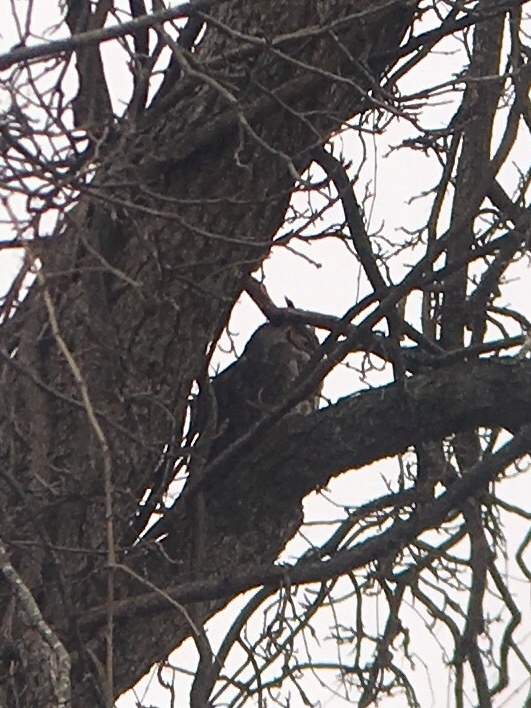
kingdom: Animalia
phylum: Chordata
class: Aves
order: Strigiformes
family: Strigidae
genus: Bubo
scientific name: Bubo virginianus
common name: Great horned owl
